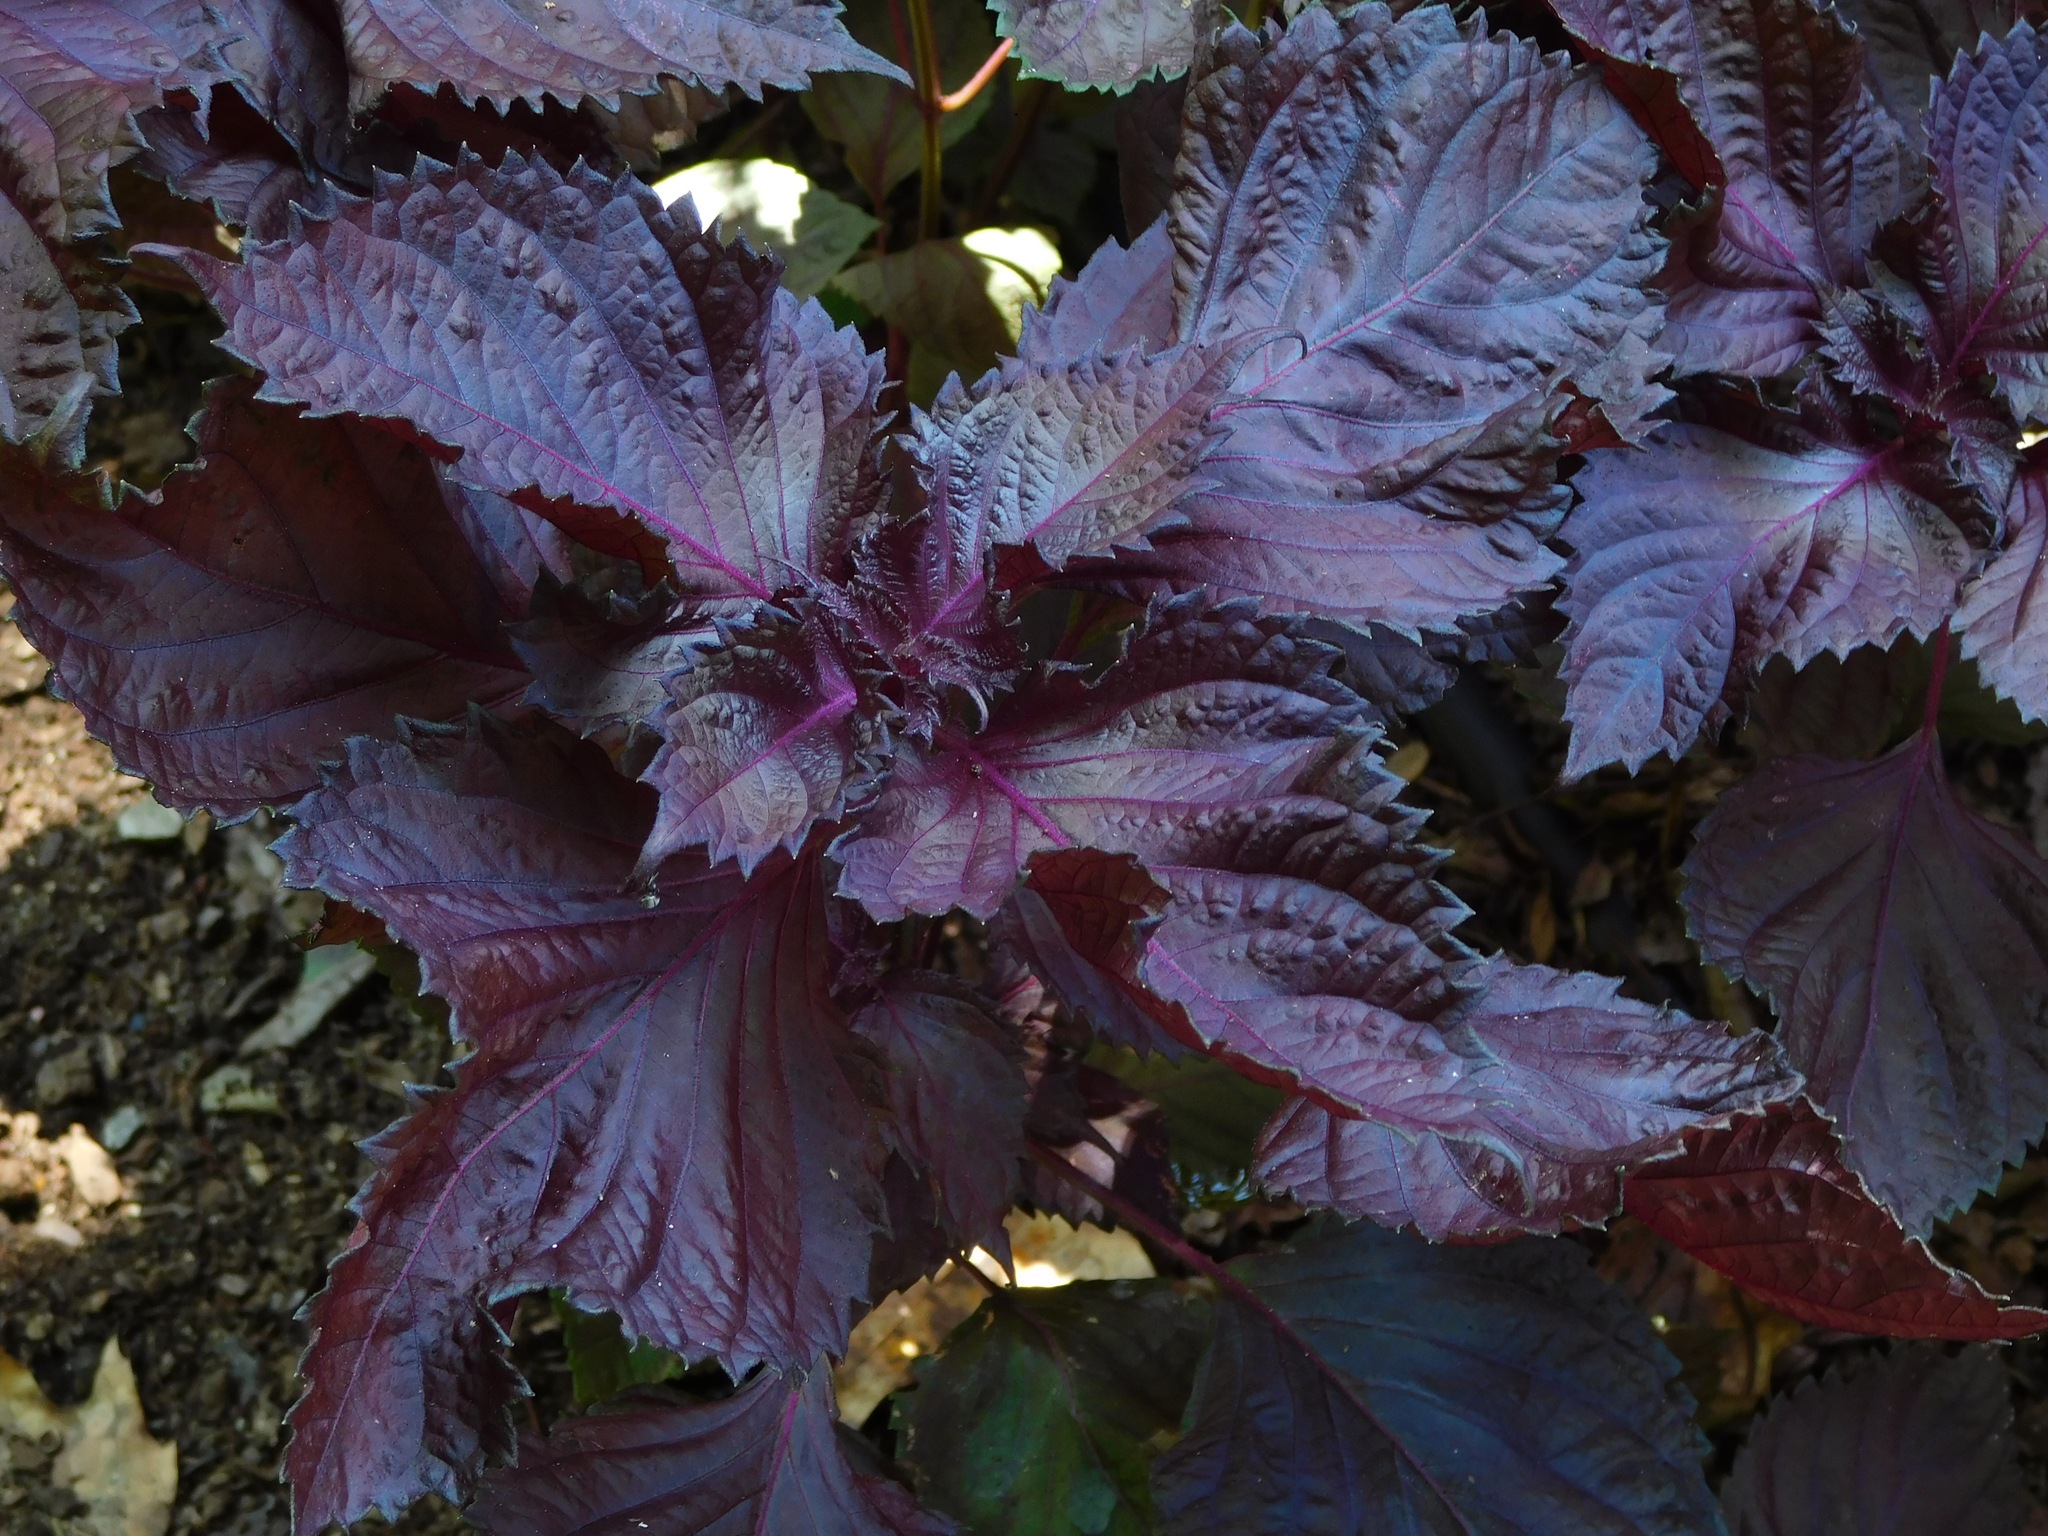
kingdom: Plantae
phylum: Tracheophyta
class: Magnoliopsida
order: Lamiales
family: Lamiaceae
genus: Perilla
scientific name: Perilla frutescens
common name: Perilla
